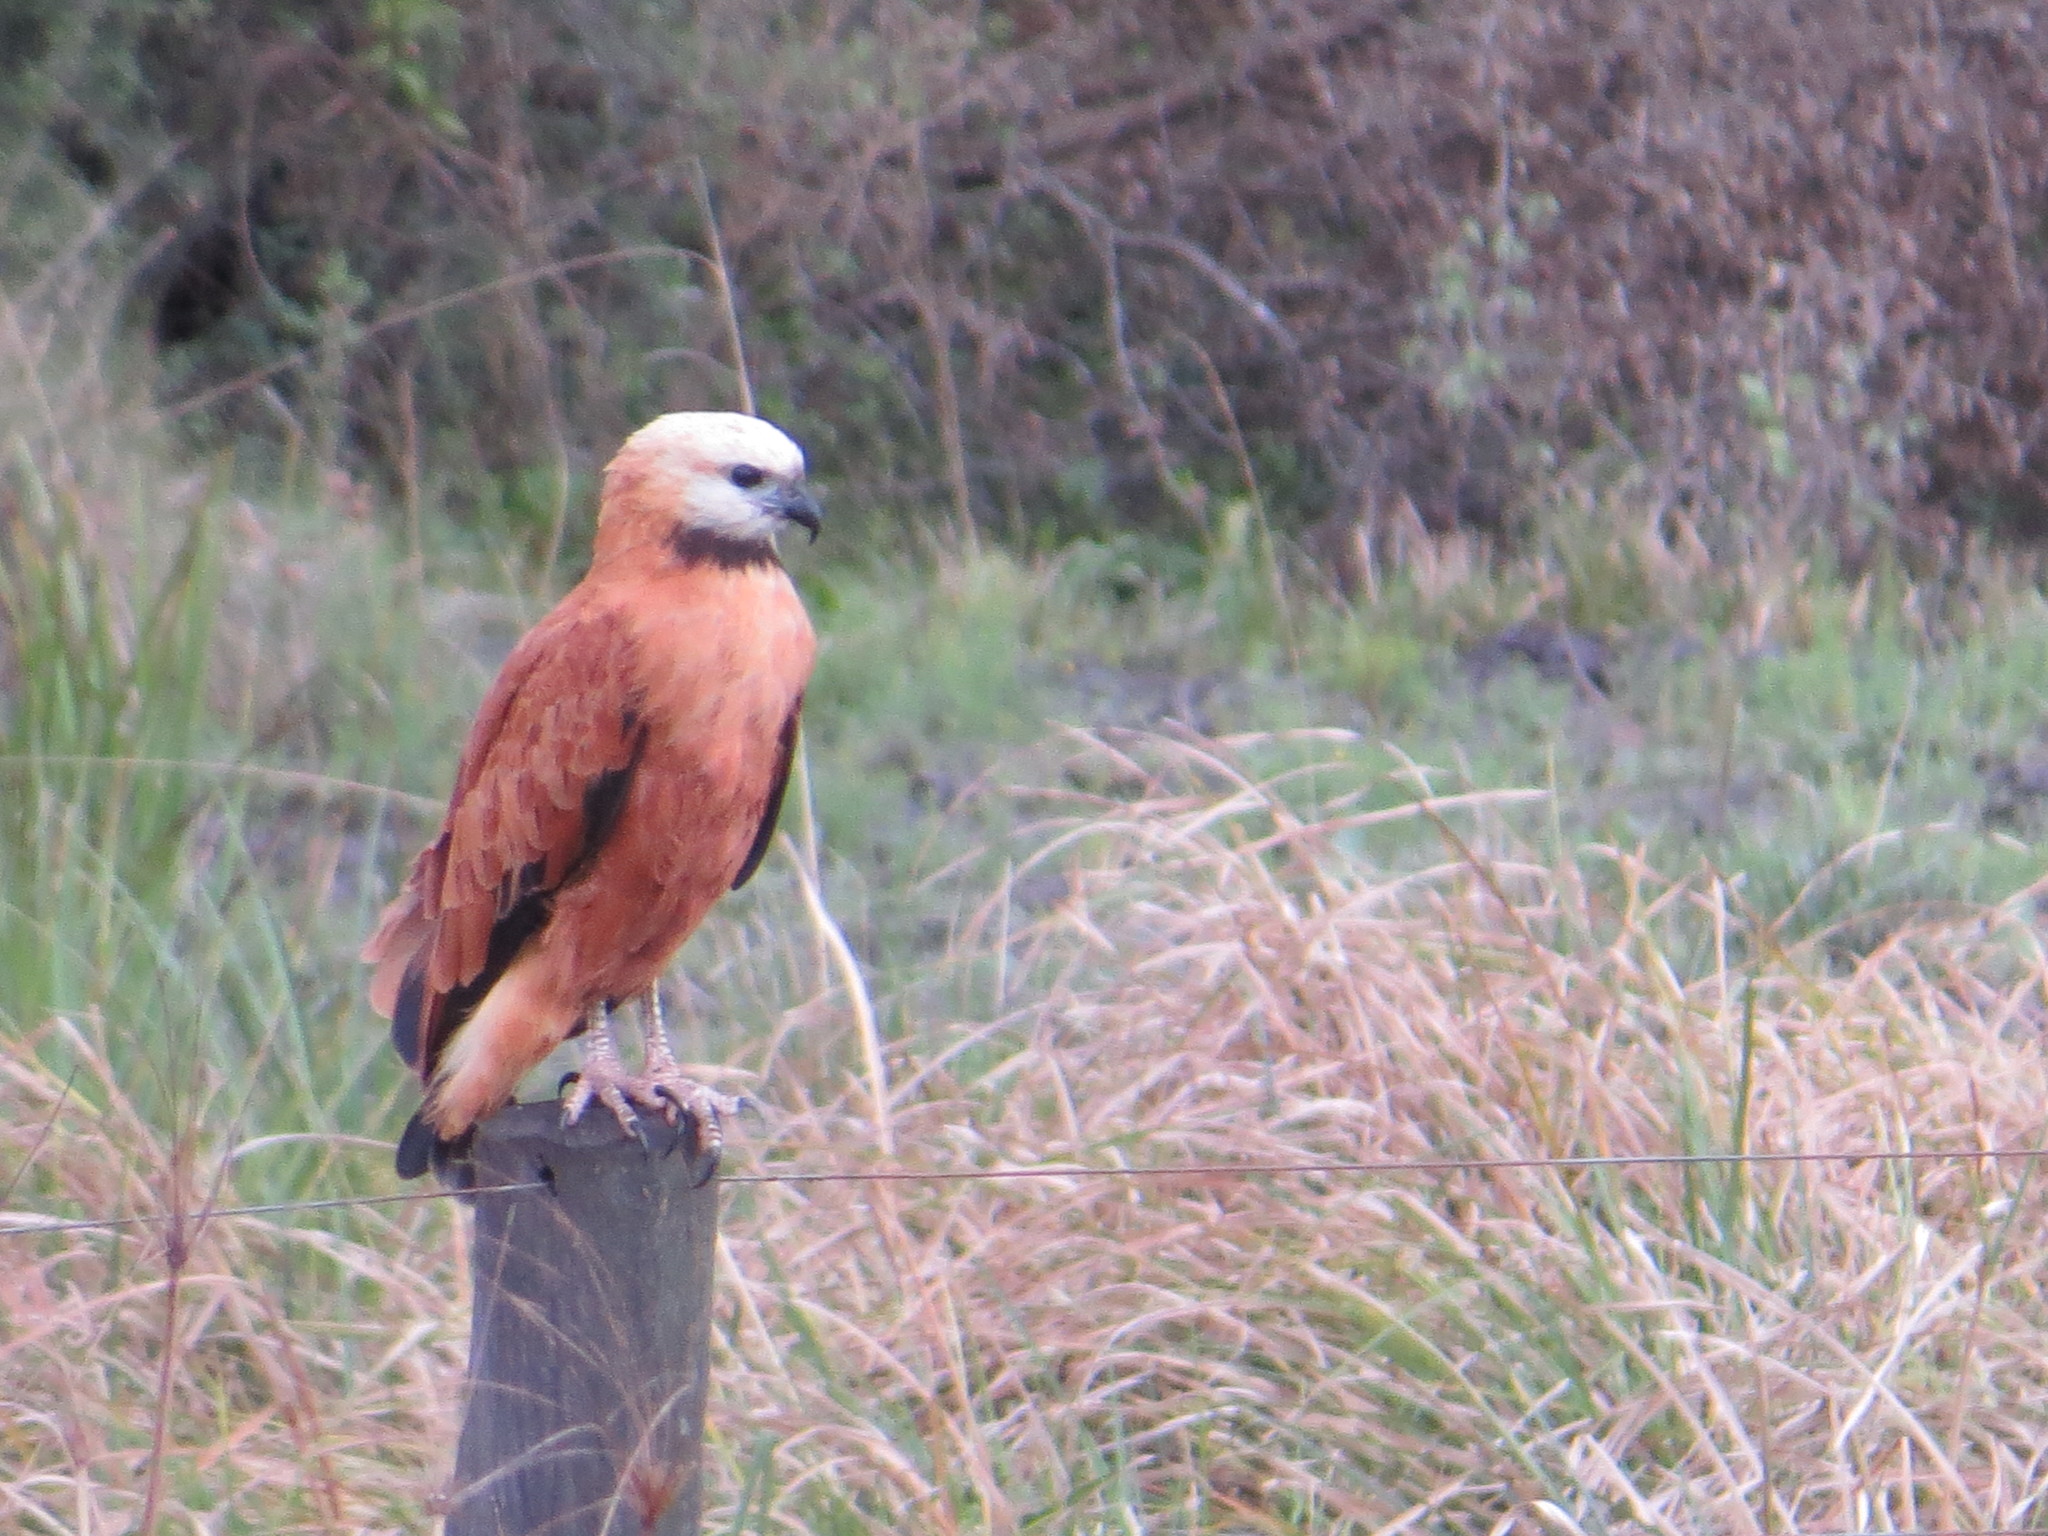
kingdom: Animalia
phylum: Chordata
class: Aves
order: Accipitriformes
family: Accipitridae
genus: Busarellus
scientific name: Busarellus nigricollis
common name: Black-collared hawk
